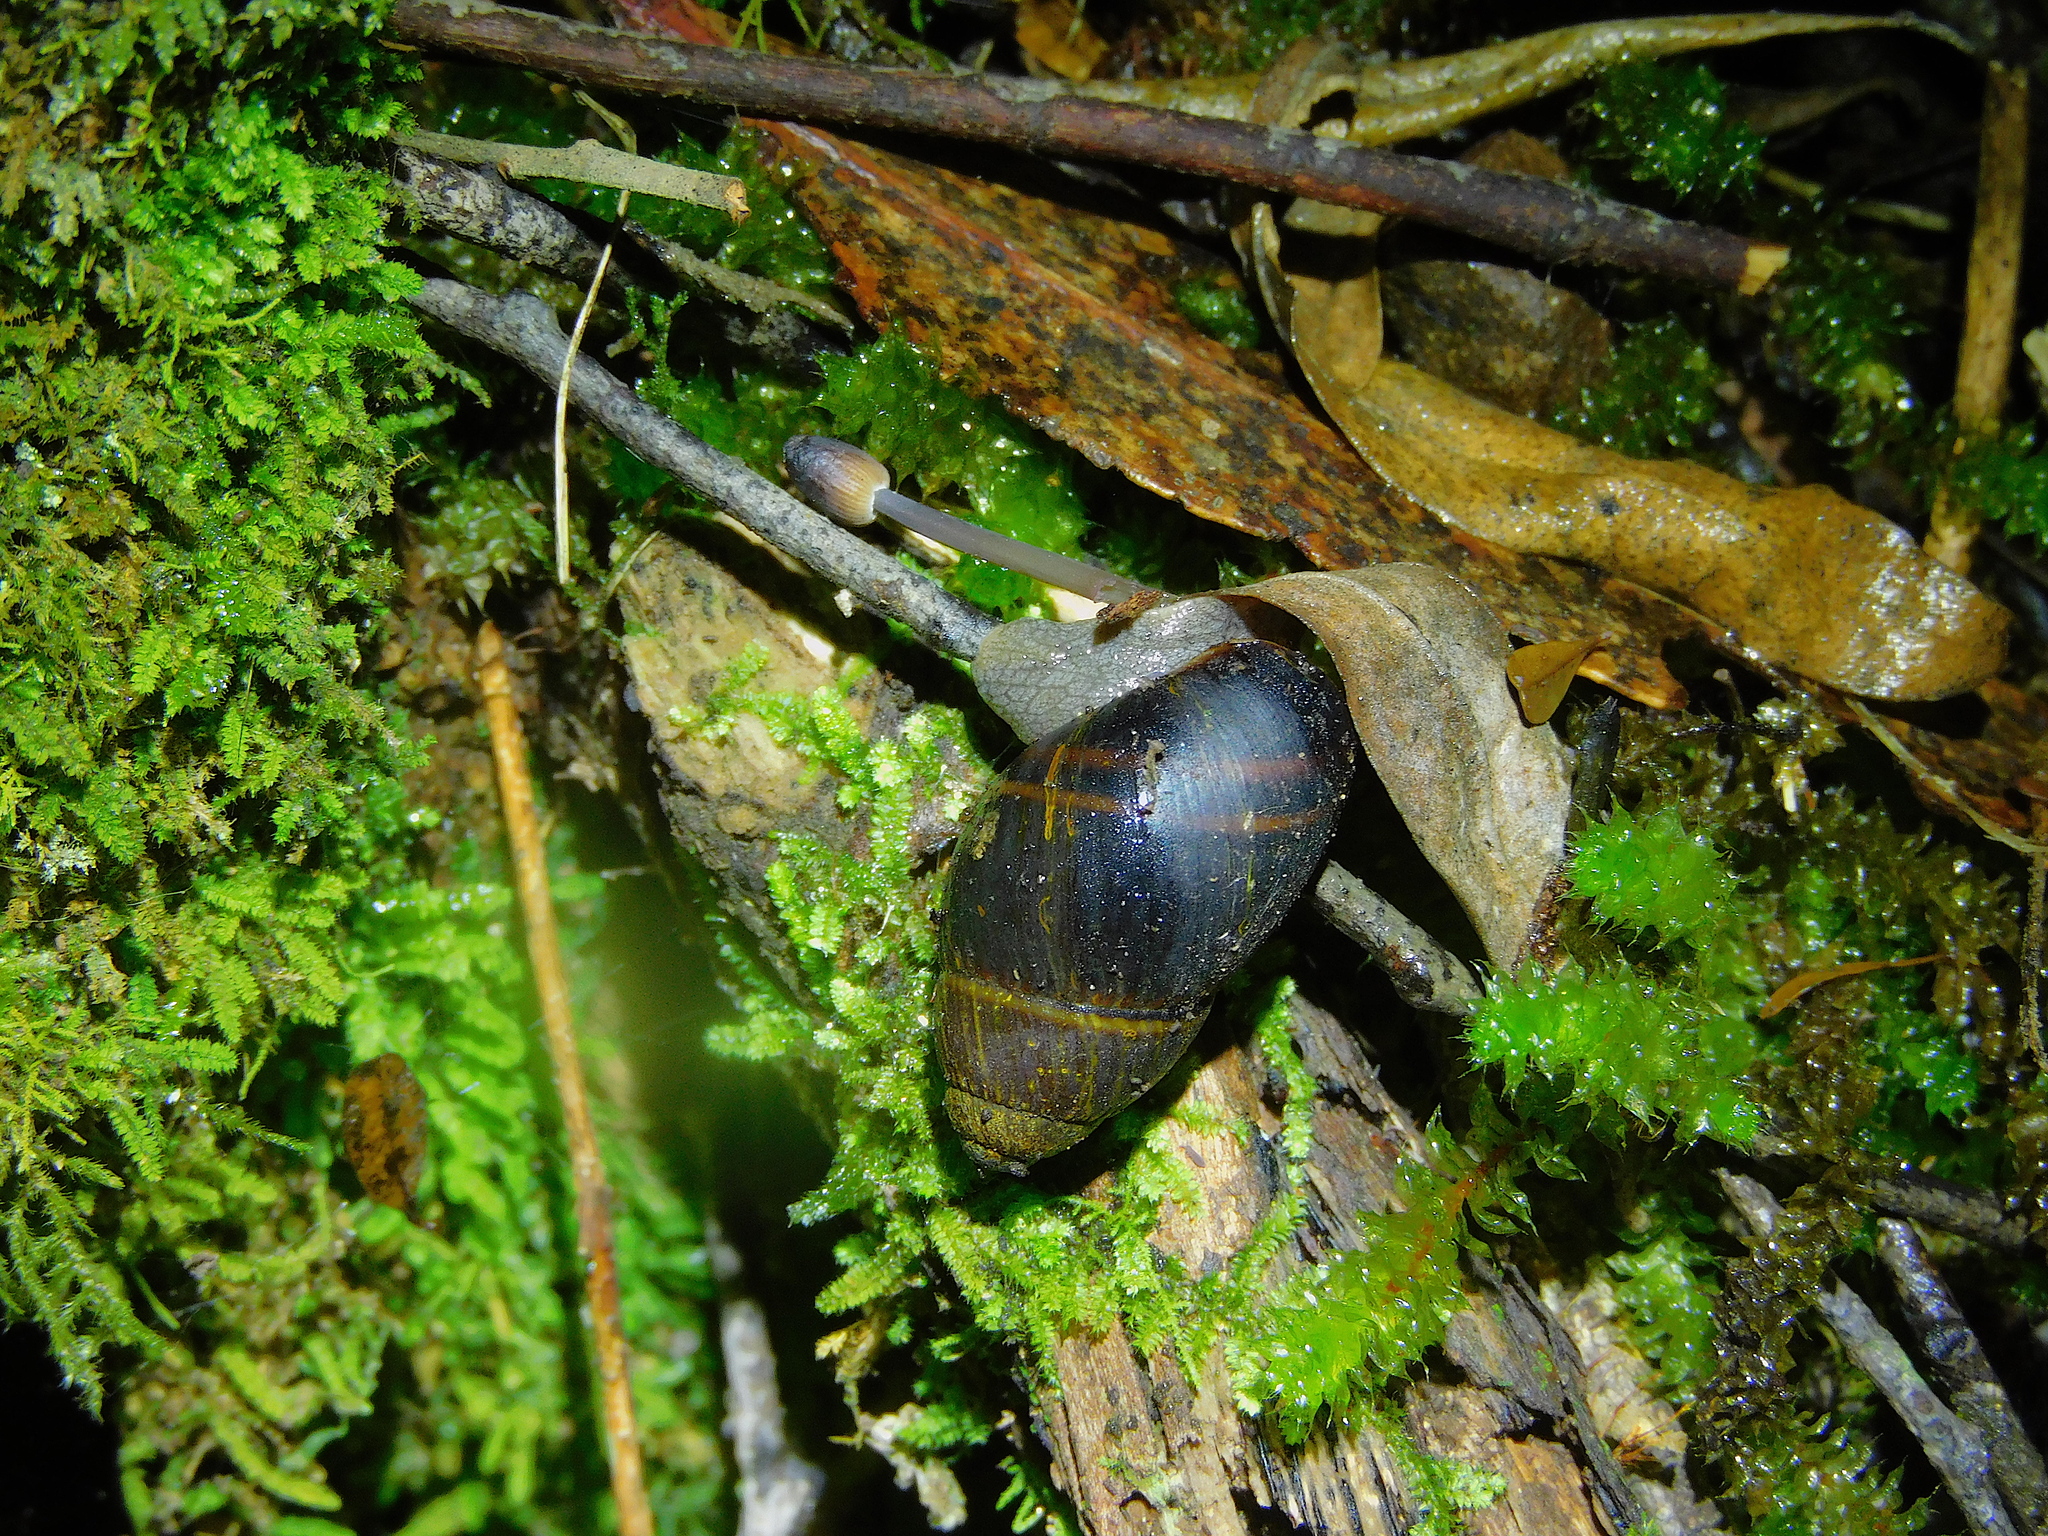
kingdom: Animalia
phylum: Mollusca
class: Gastropoda
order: Stylommatophora
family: Caryodidae
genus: Caryodes
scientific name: Caryodes dufresnii
